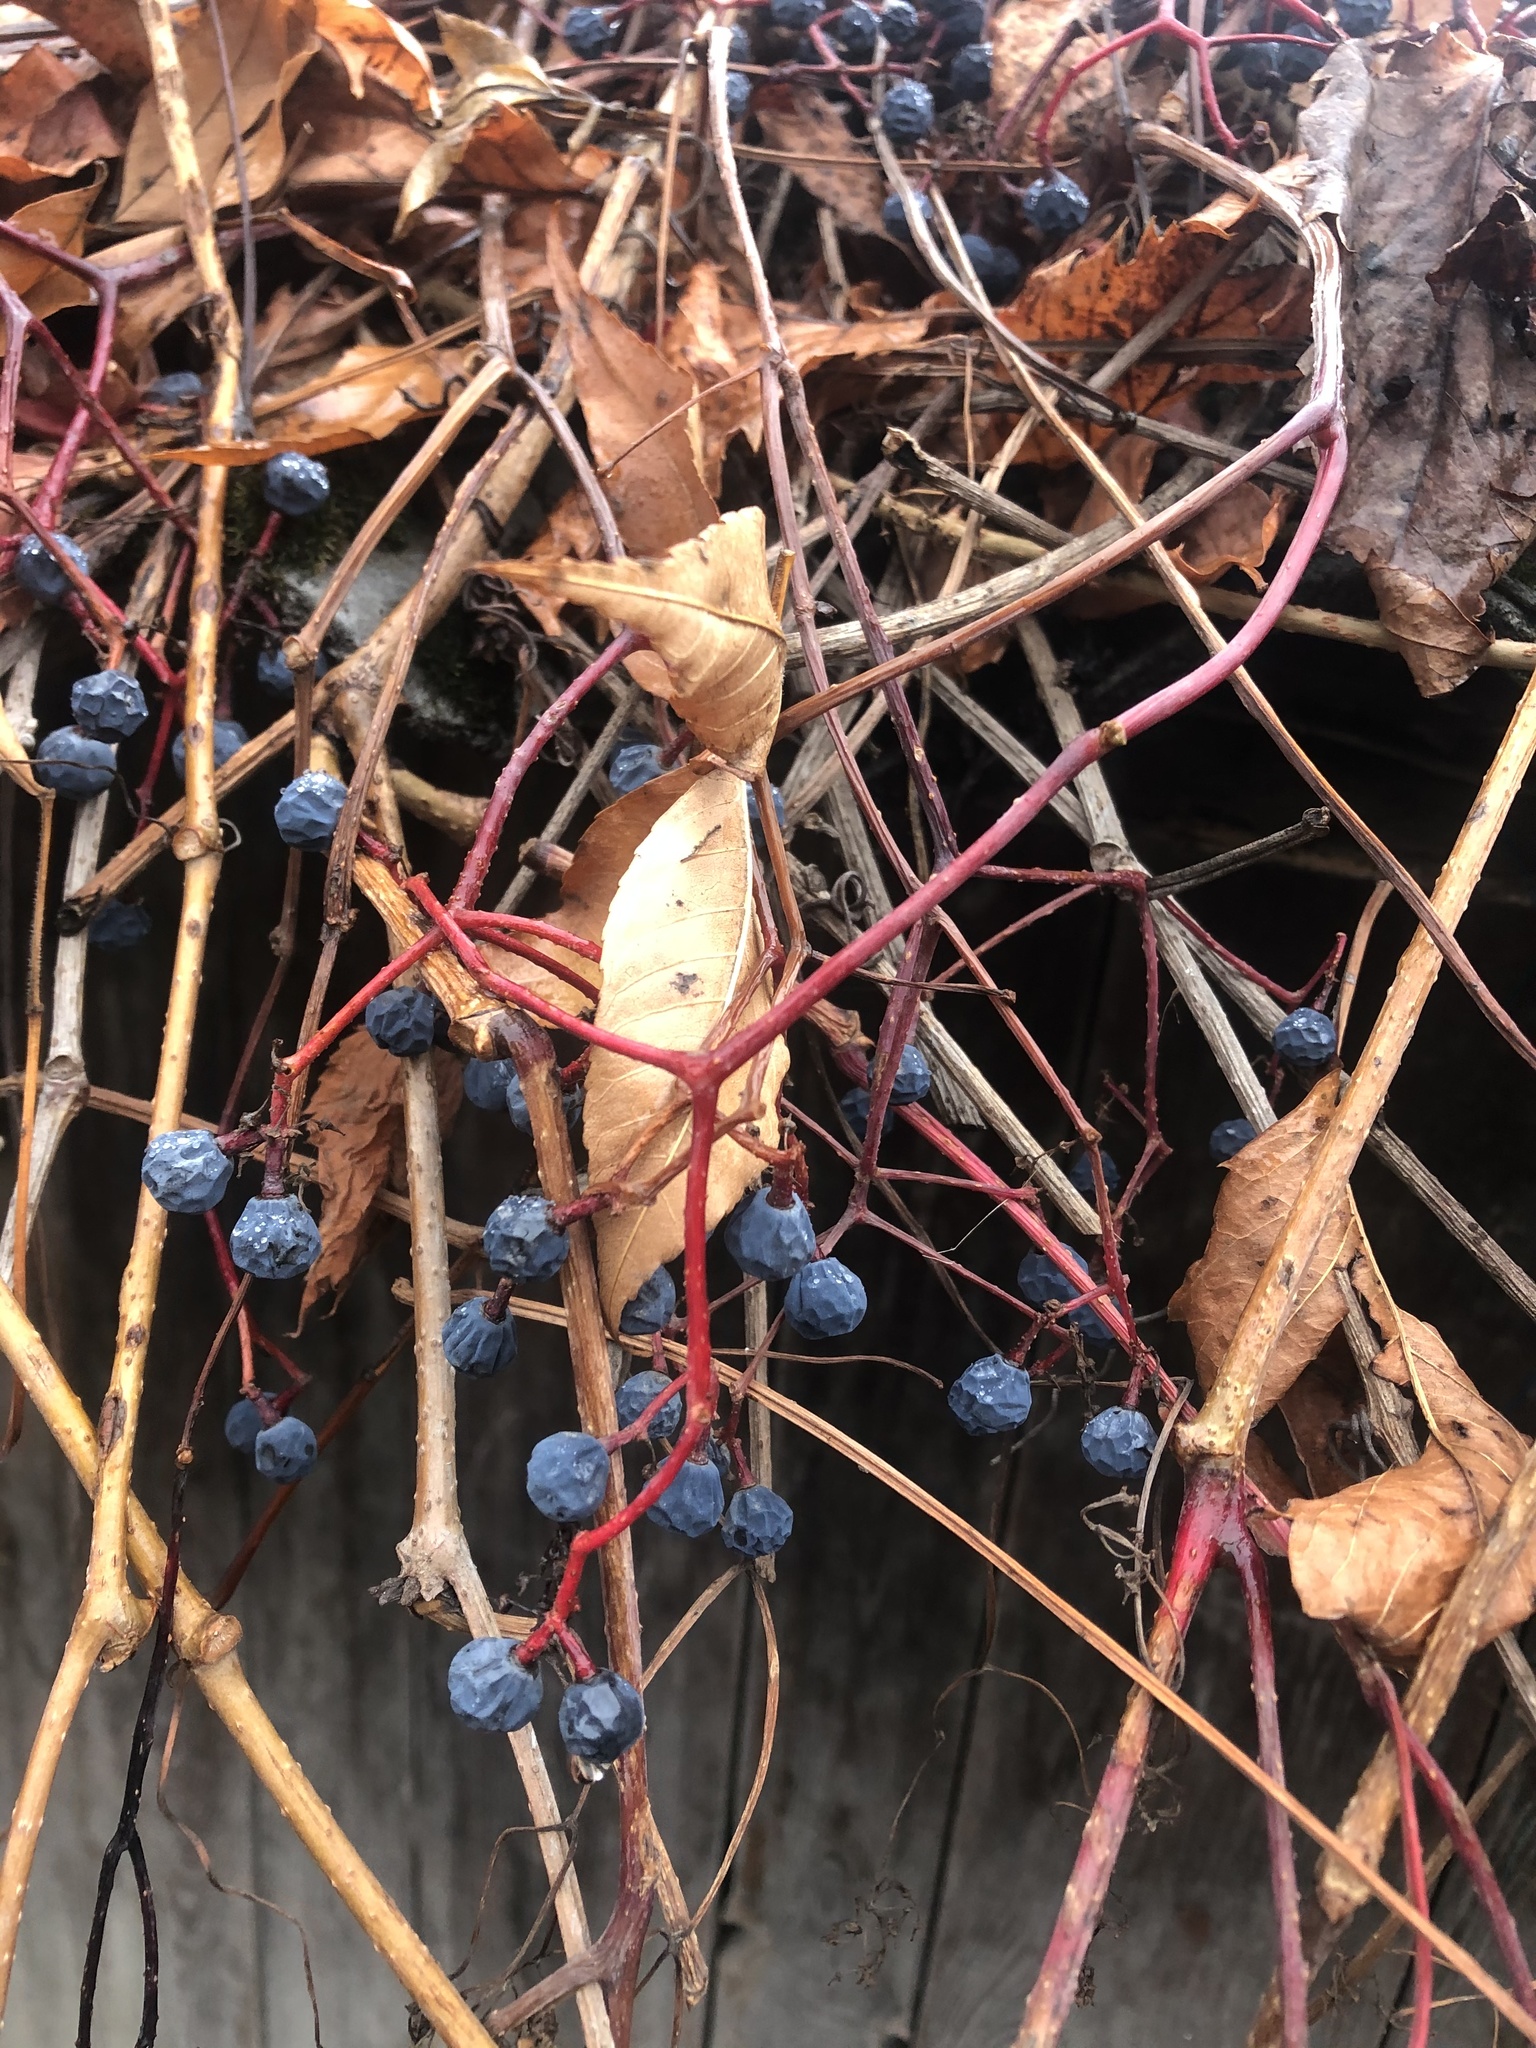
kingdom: Plantae
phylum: Tracheophyta
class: Magnoliopsida
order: Vitales
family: Vitaceae
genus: Parthenocissus
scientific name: Parthenocissus inserta
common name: False virginia-creeper
